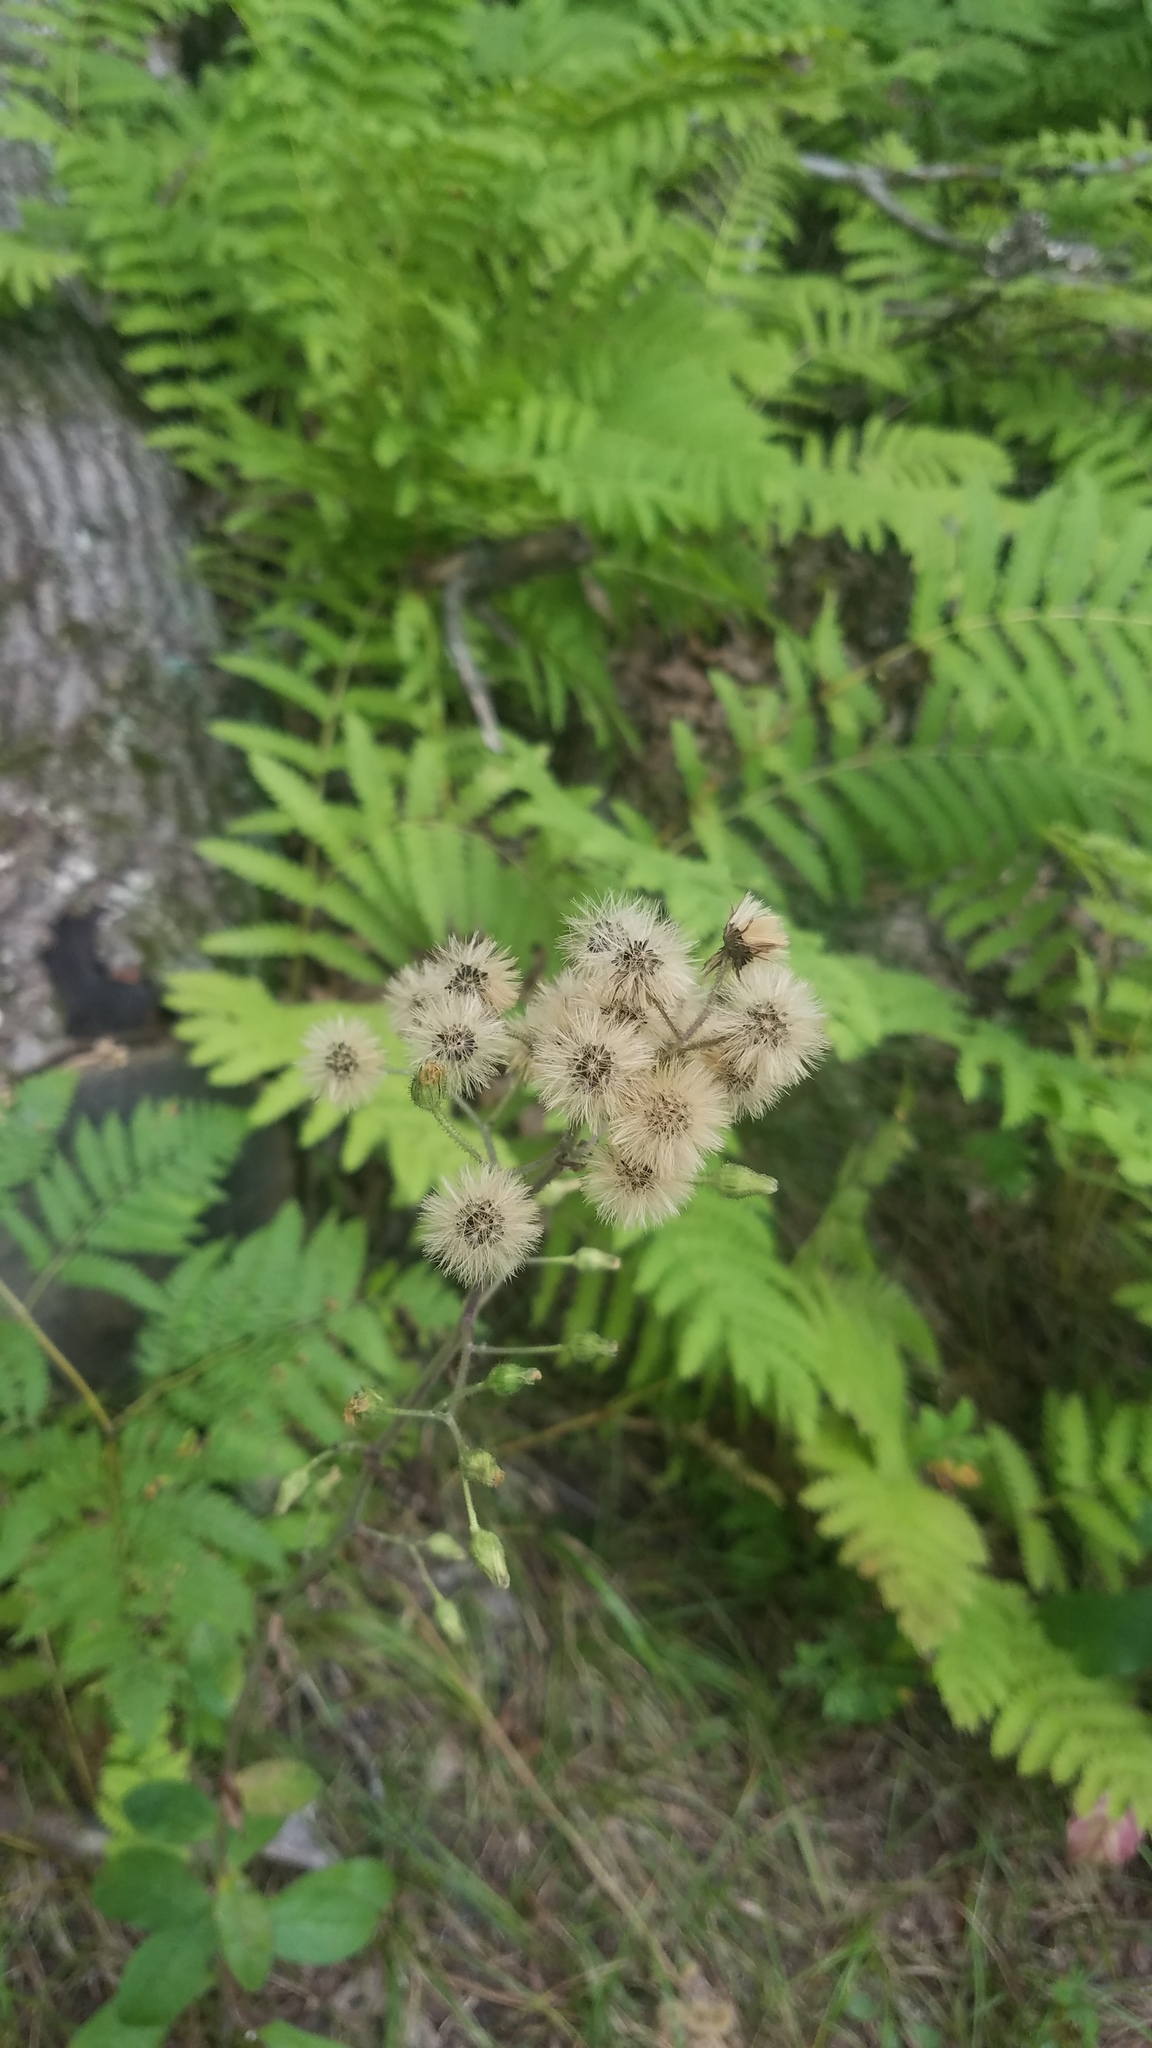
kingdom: Plantae
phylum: Tracheophyta
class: Magnoliopsida
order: Asterales
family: Asteraceae
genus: Hieracium
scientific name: Hieracium scabrum
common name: Rough hawkweed
